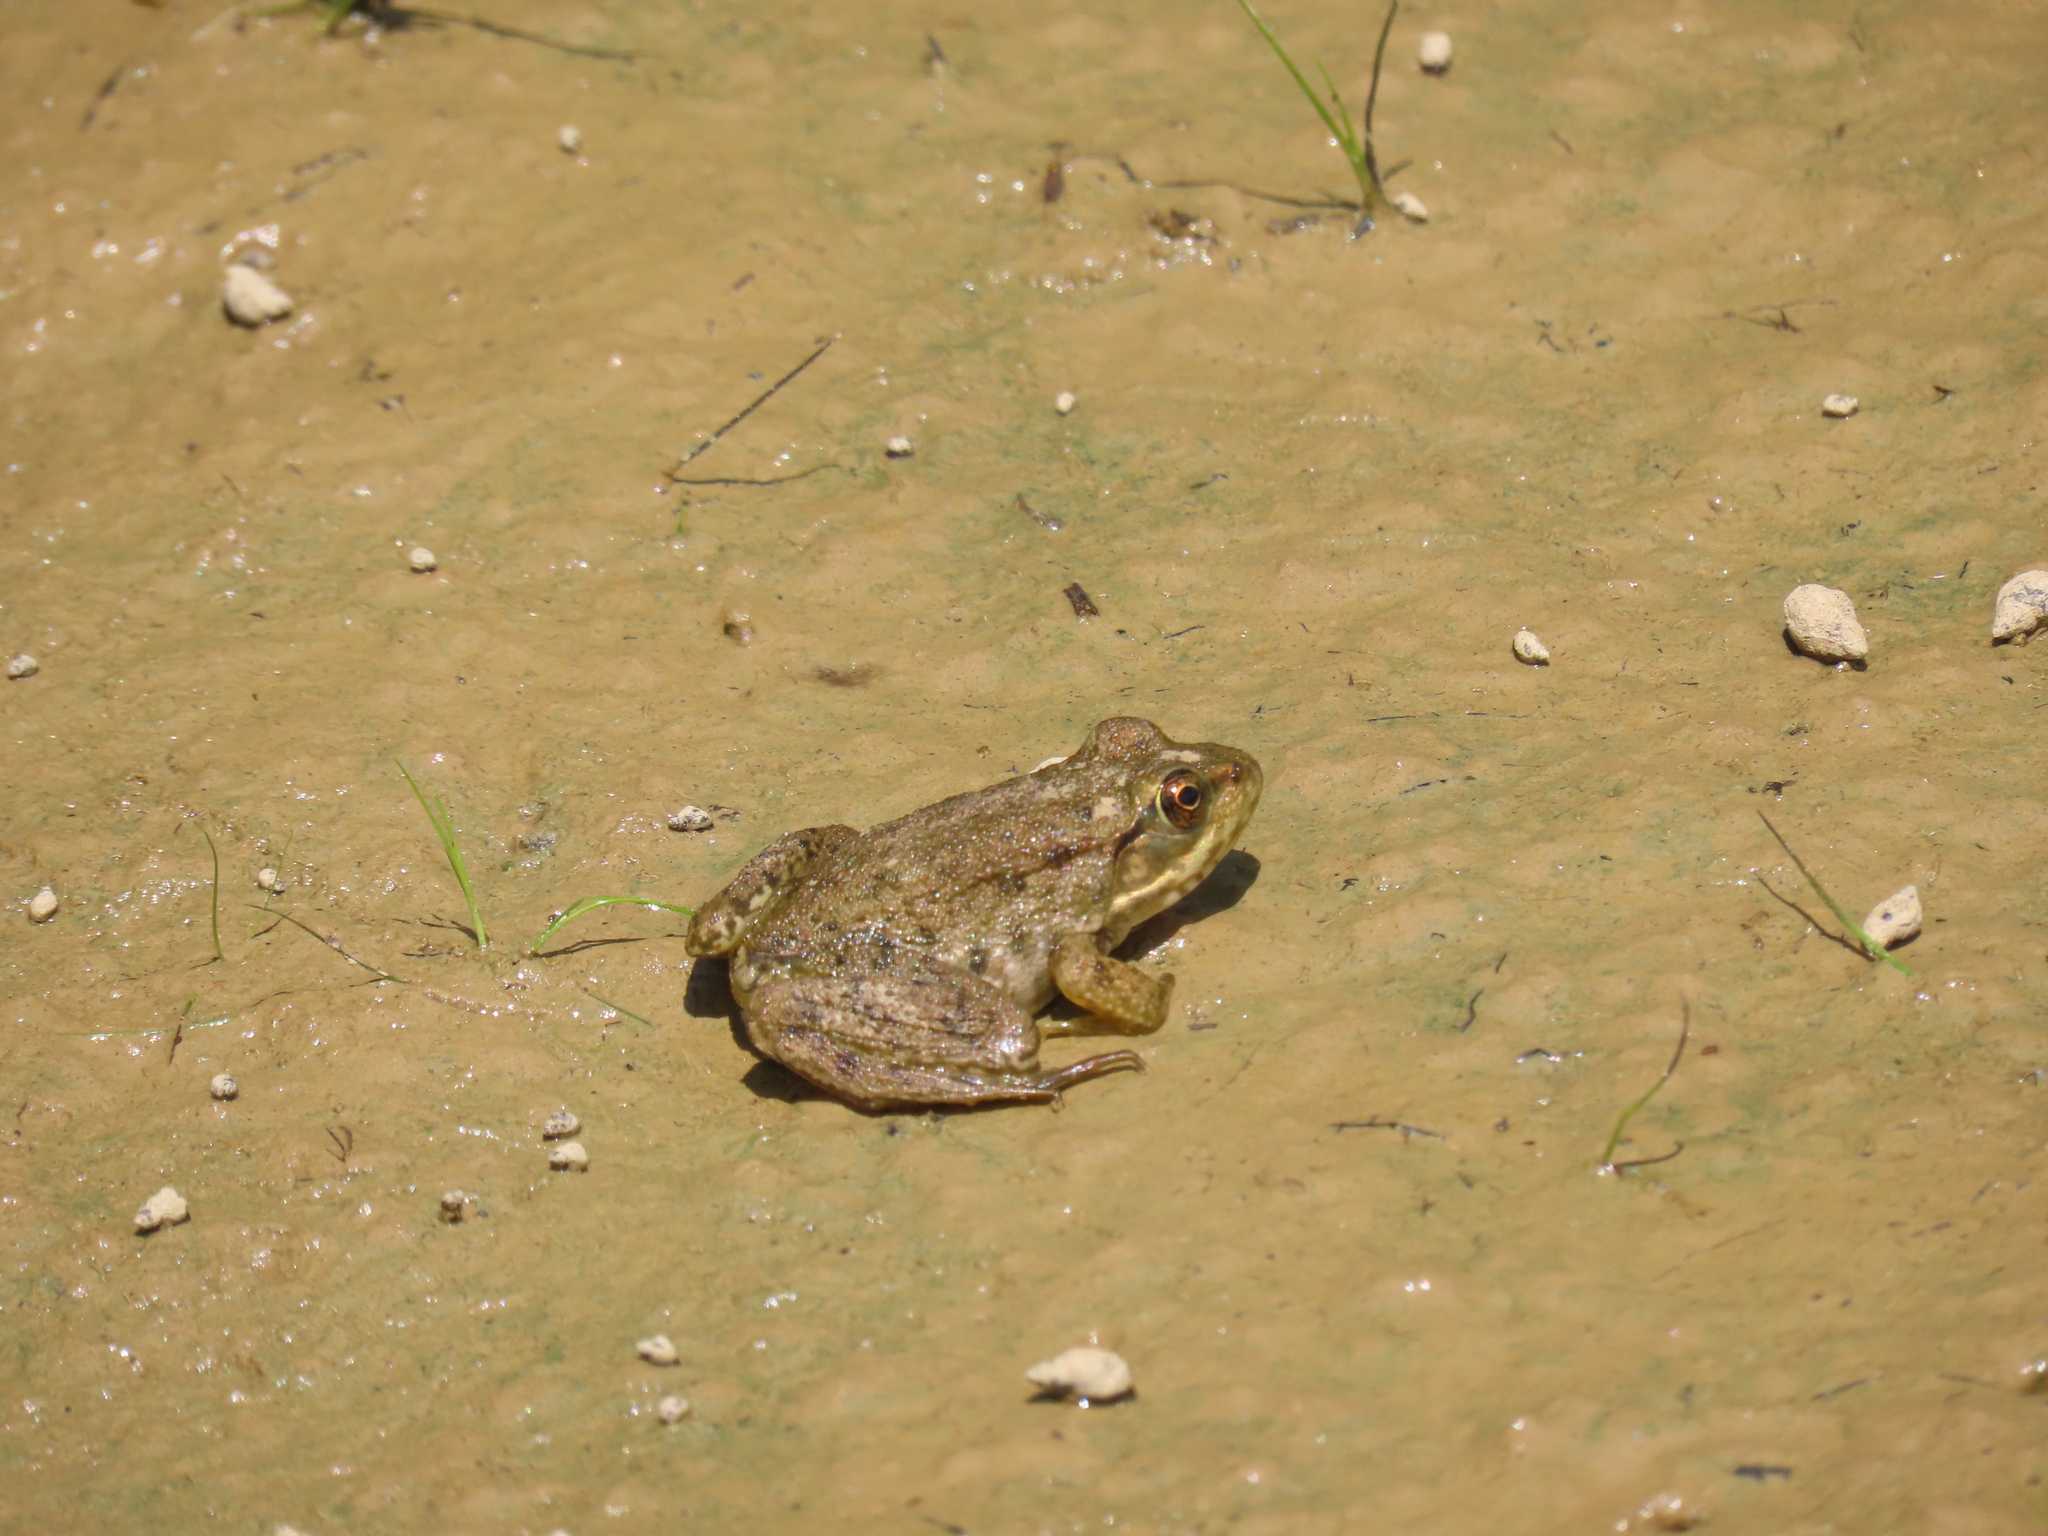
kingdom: Animalia
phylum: Chordata
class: Amphibia
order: Anura
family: Ranidae
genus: Lithobates
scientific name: Lithobates clamitans
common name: Green frog
